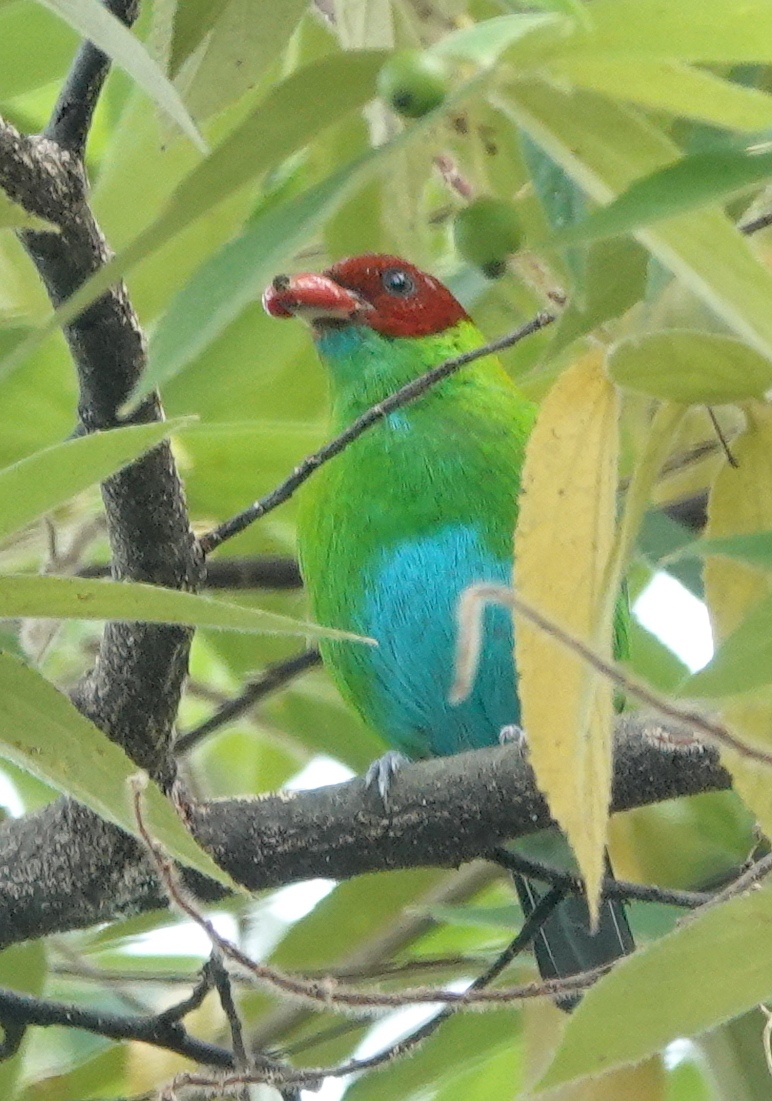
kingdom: Animalia
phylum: Chordata
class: Aves
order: Passeriformes
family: Thraupidae
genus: Tangara
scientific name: Tangara lavinia
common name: Rufous-winged tanager
